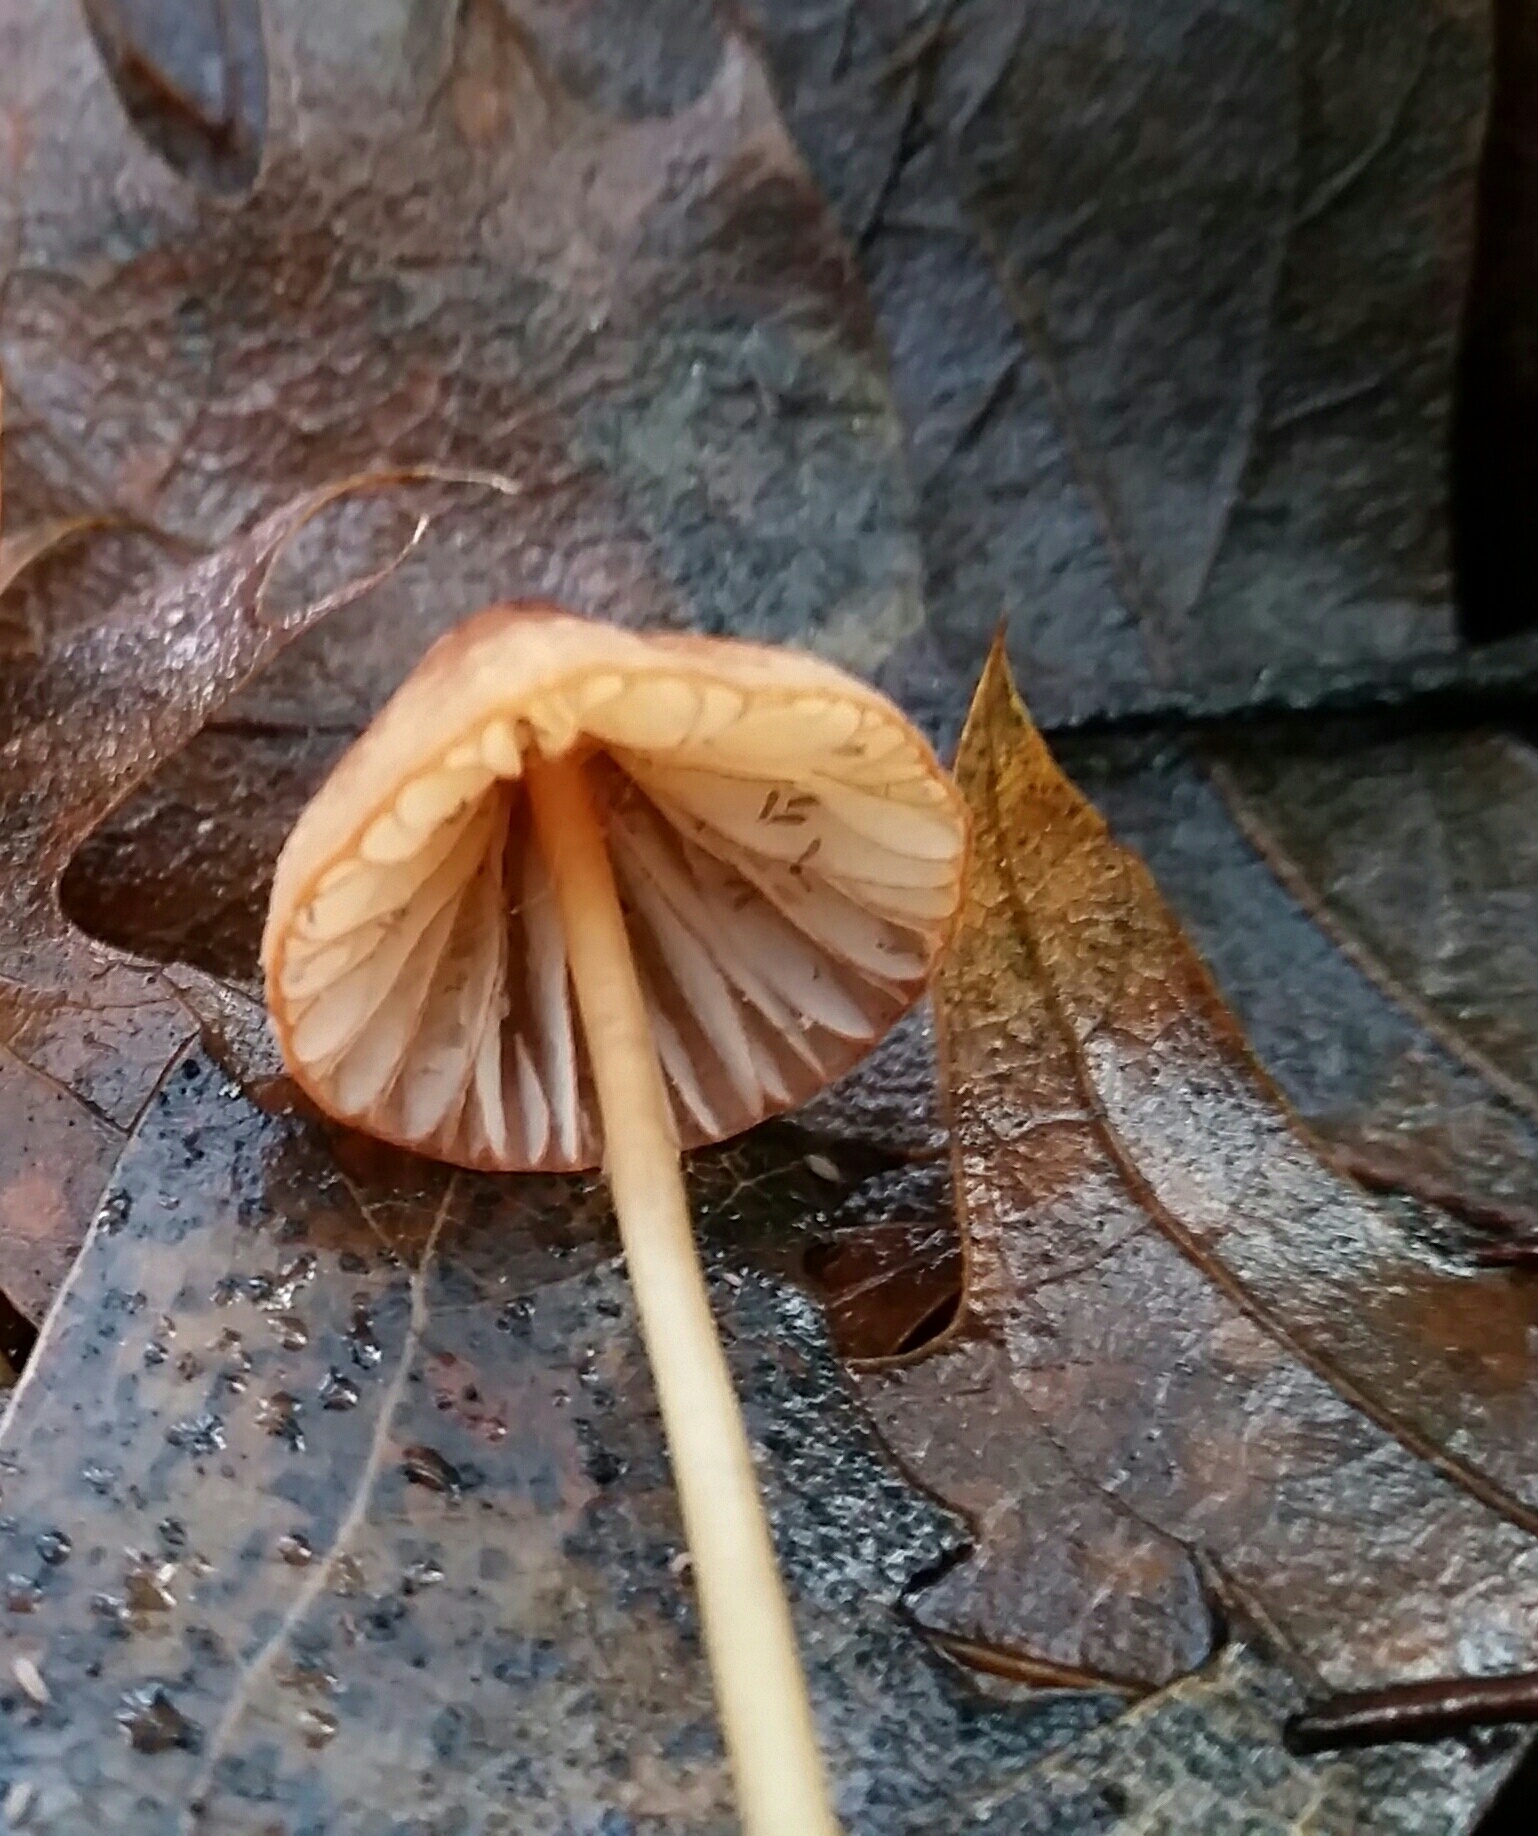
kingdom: Fungi
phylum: Basidiomycota
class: Agaricomycetes
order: Agaricales
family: Mycenaceae
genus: Mycena
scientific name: Mycena
